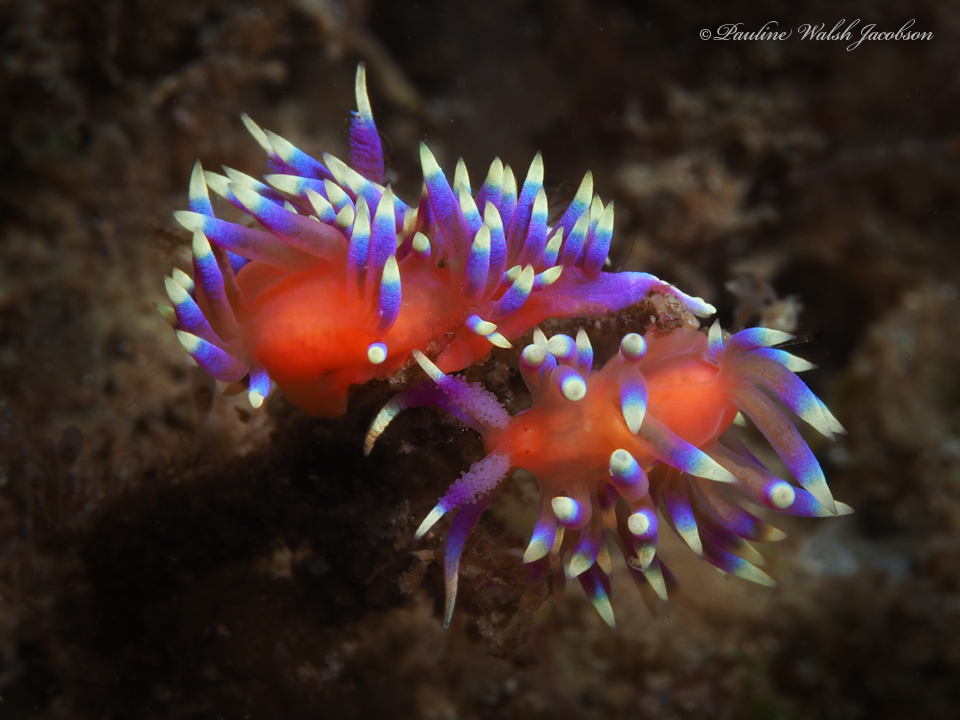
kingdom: Animalia
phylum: Mollusca
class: Gastropoda
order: Nudibranchia
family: Flabellinidae
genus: Coryphellina
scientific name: Coryphellina marcusorum
